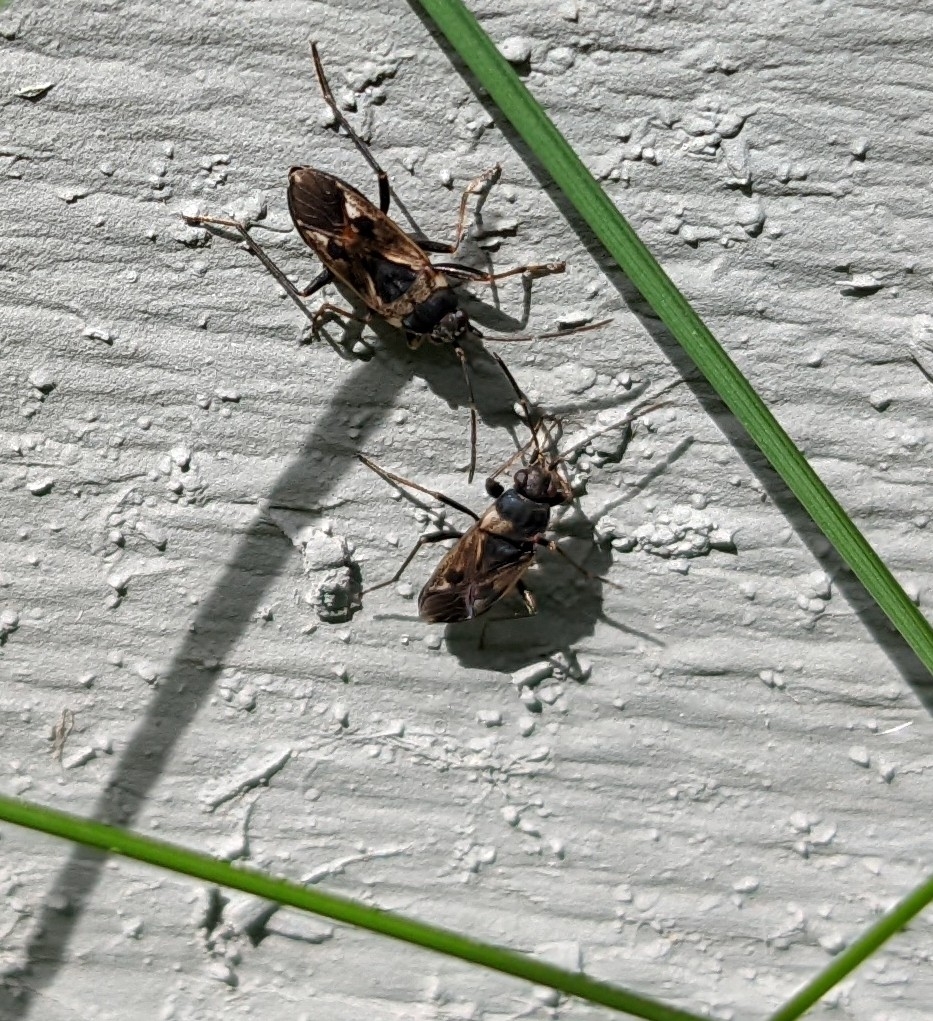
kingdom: Animalia
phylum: Arthropoda
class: Insecta
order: Hemiptera
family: Rhyparochromidae
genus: Rhyparochromus
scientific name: Rhyparochromus vulgaris
